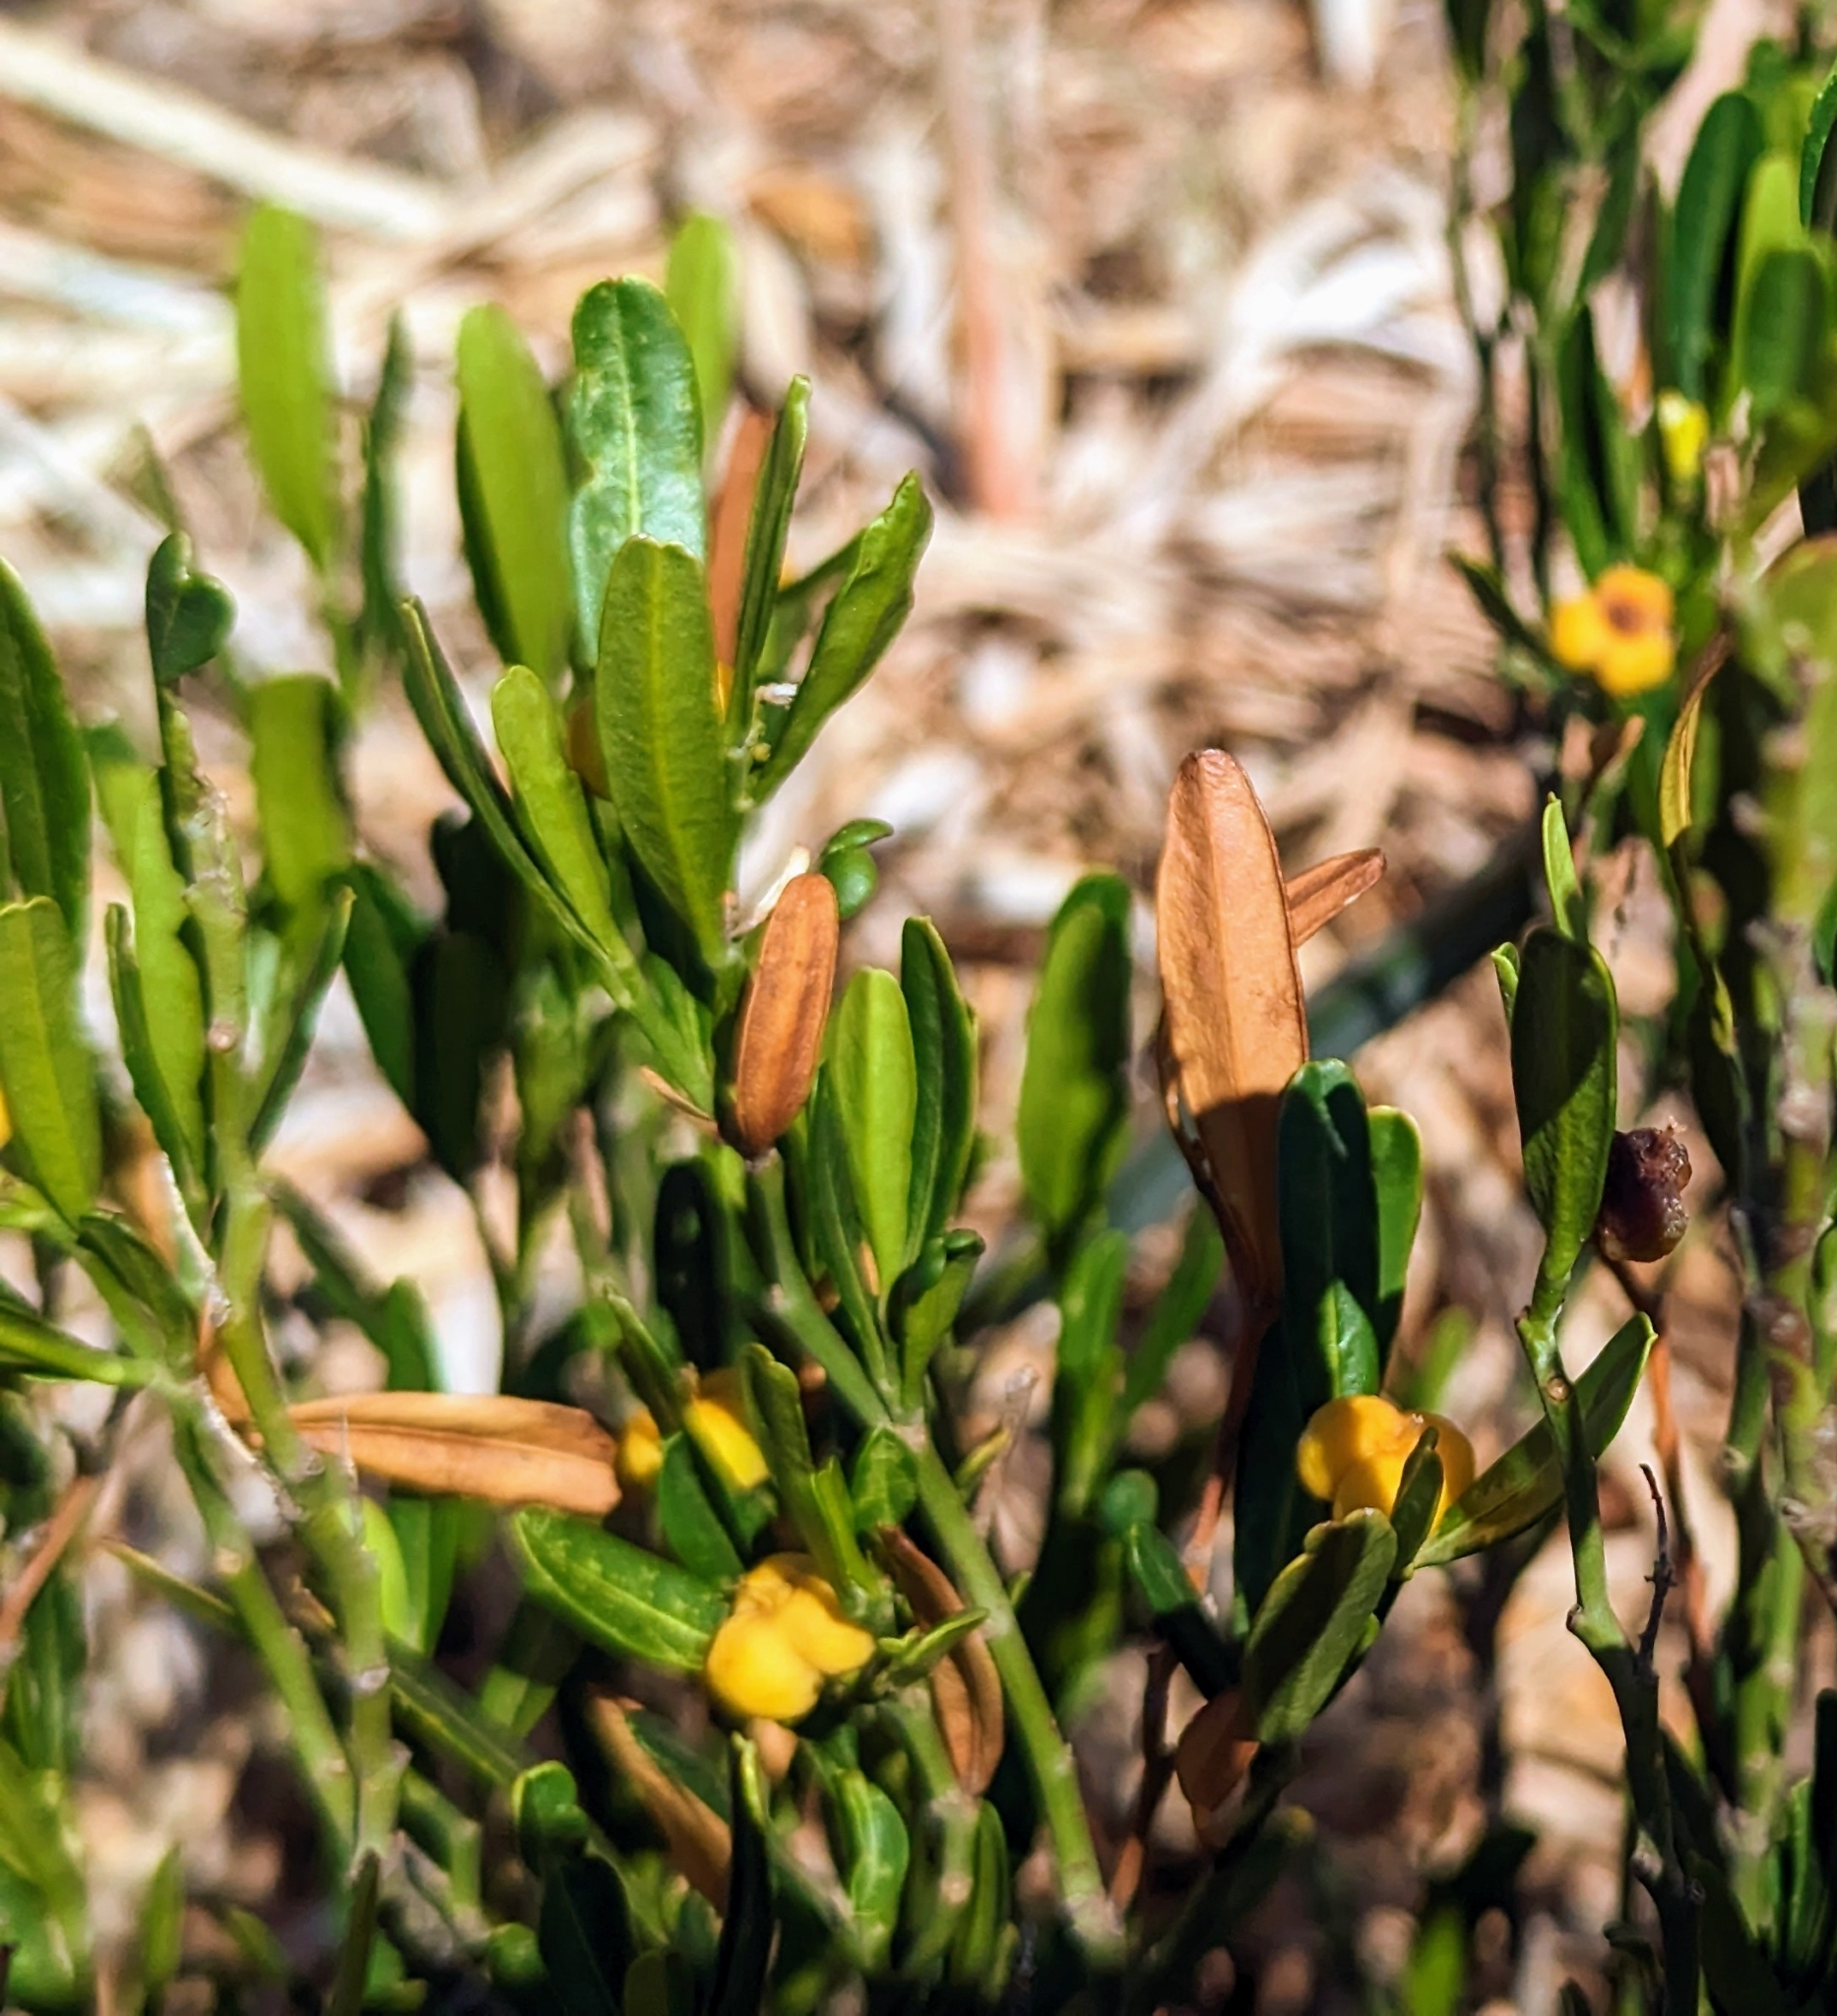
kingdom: Plantae
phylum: Tracheophyta
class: Magnoliopsida
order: Sapindales
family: Rutaceae
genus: Cneorum
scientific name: Cneorum tricoccon
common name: Spurge olive
